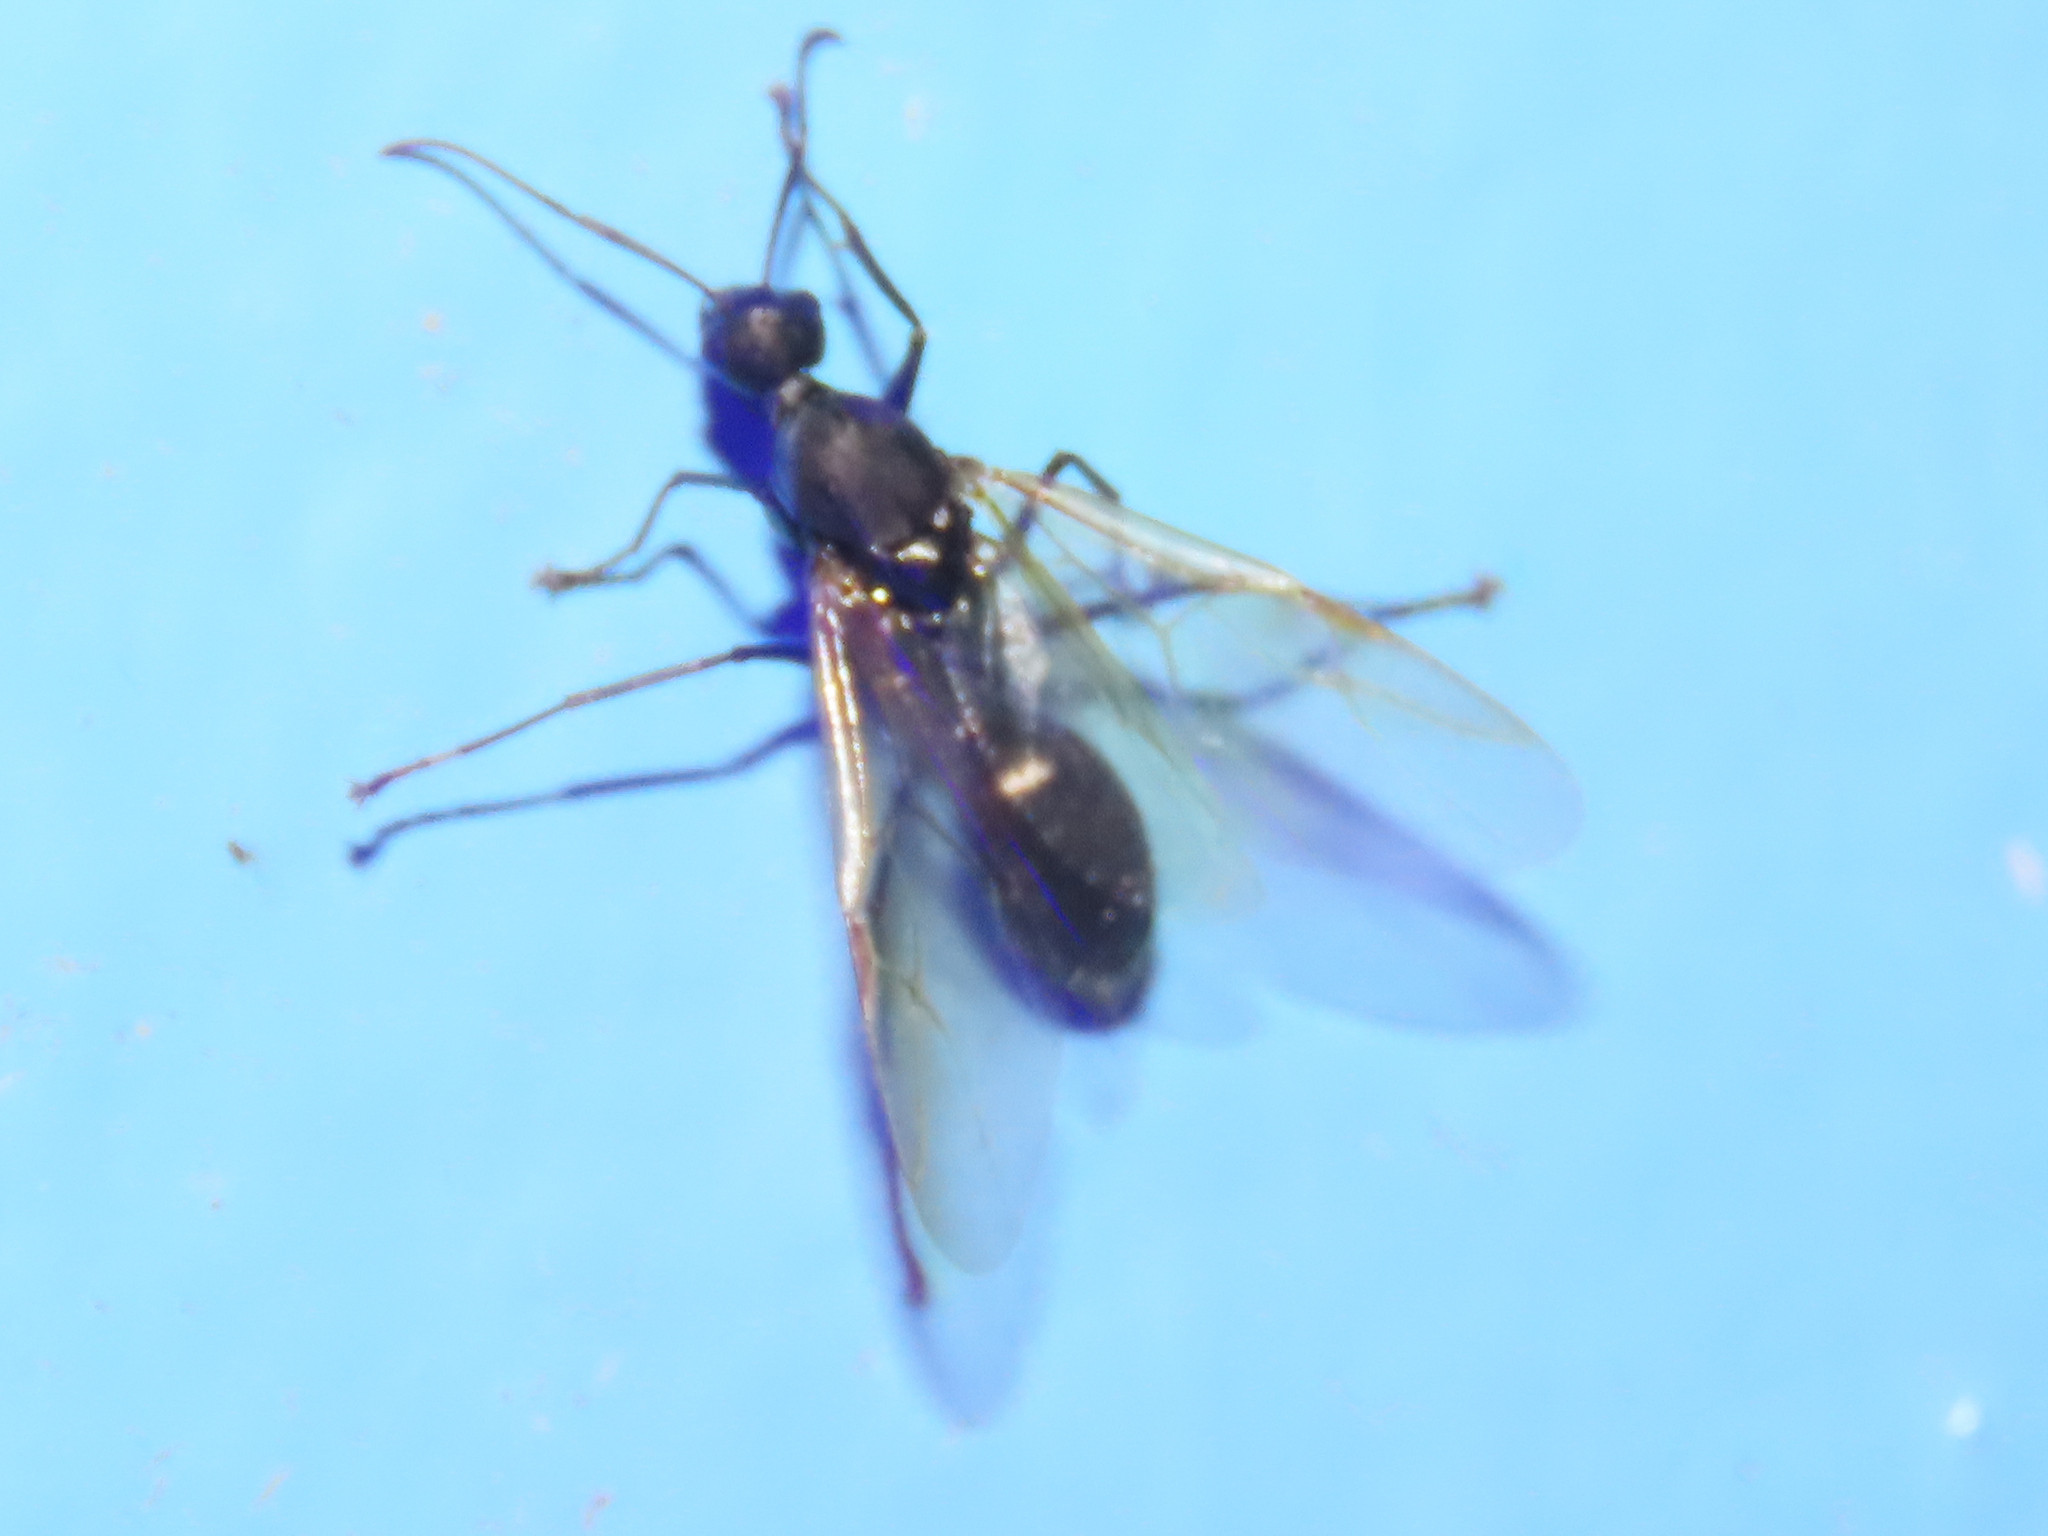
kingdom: Animalia
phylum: Arthropoda
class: Insecta
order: Hymenoptera
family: Formicidae
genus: Camponotus
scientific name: Camponotus pennsylvanicus
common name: Black carpenter ant
